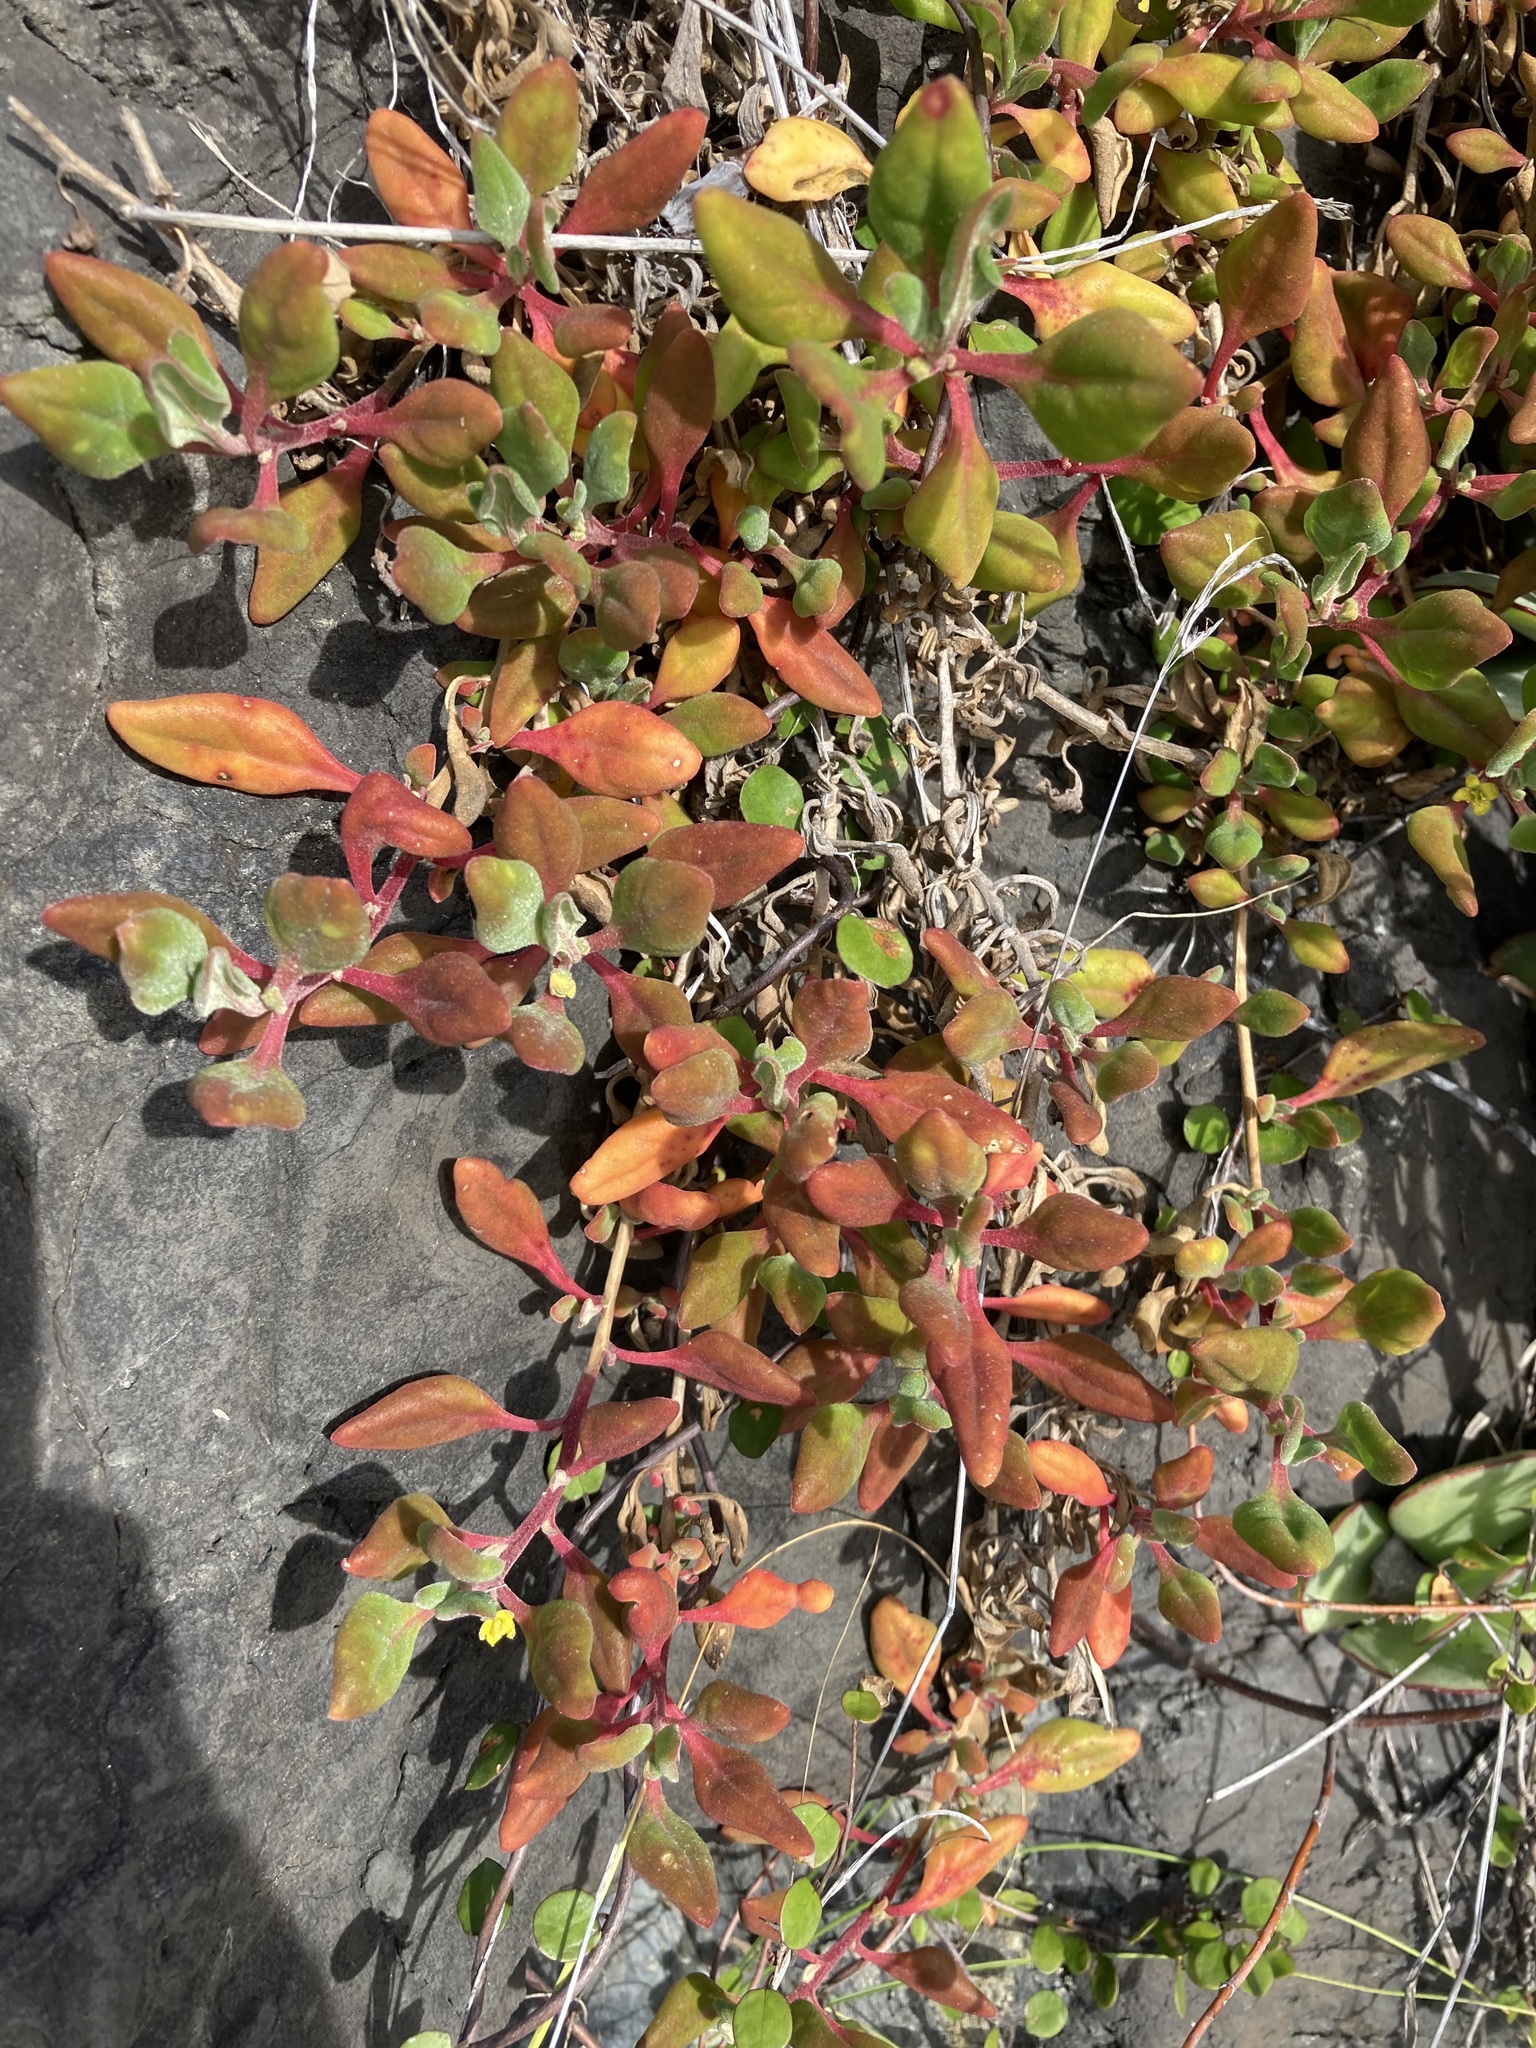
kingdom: Plantae
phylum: Tracheophyta
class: Magnoliopsida
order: Caryophyllales
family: Aizoaceae
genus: Tetragonia
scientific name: Tetragonia implexicoma
